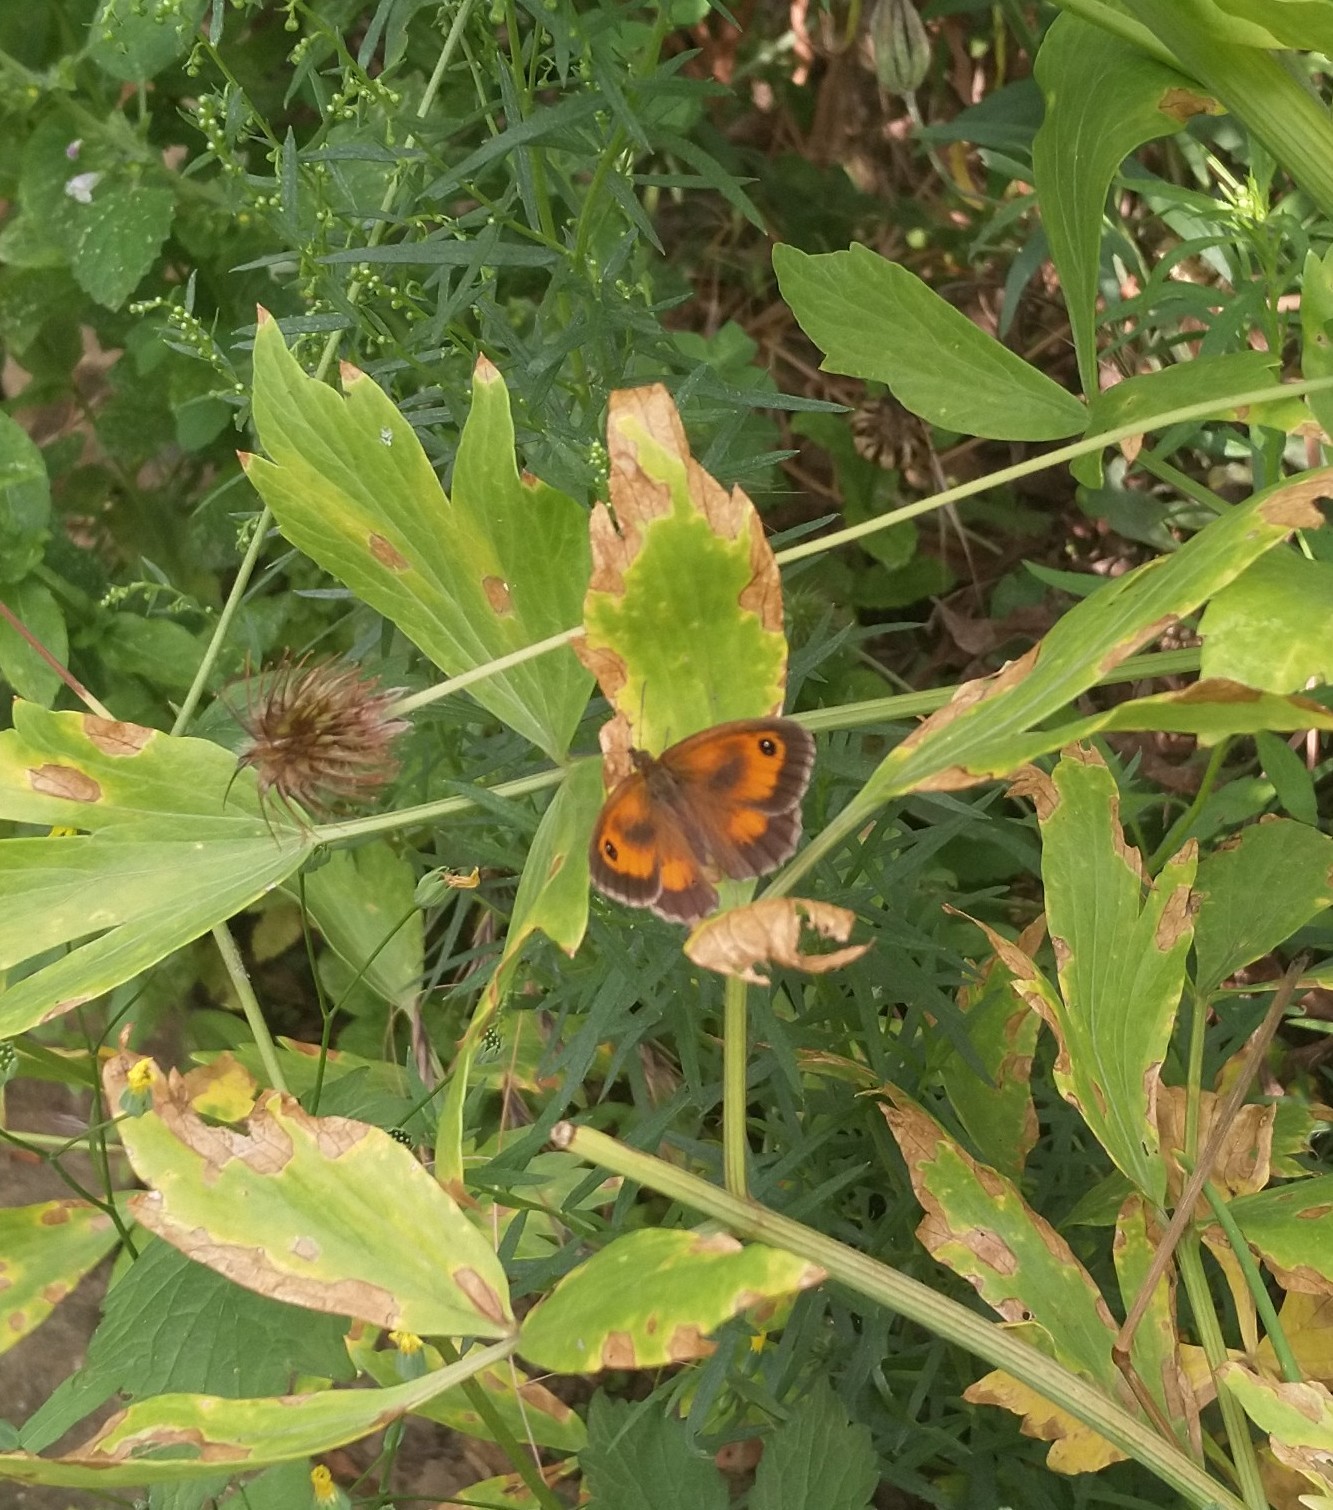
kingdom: Animalia
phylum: Arthropoda
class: Insecta
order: Lepidoptera
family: Nymphalidae
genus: Pyronia
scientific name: Pyronia tithonus
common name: Gatekeeper
